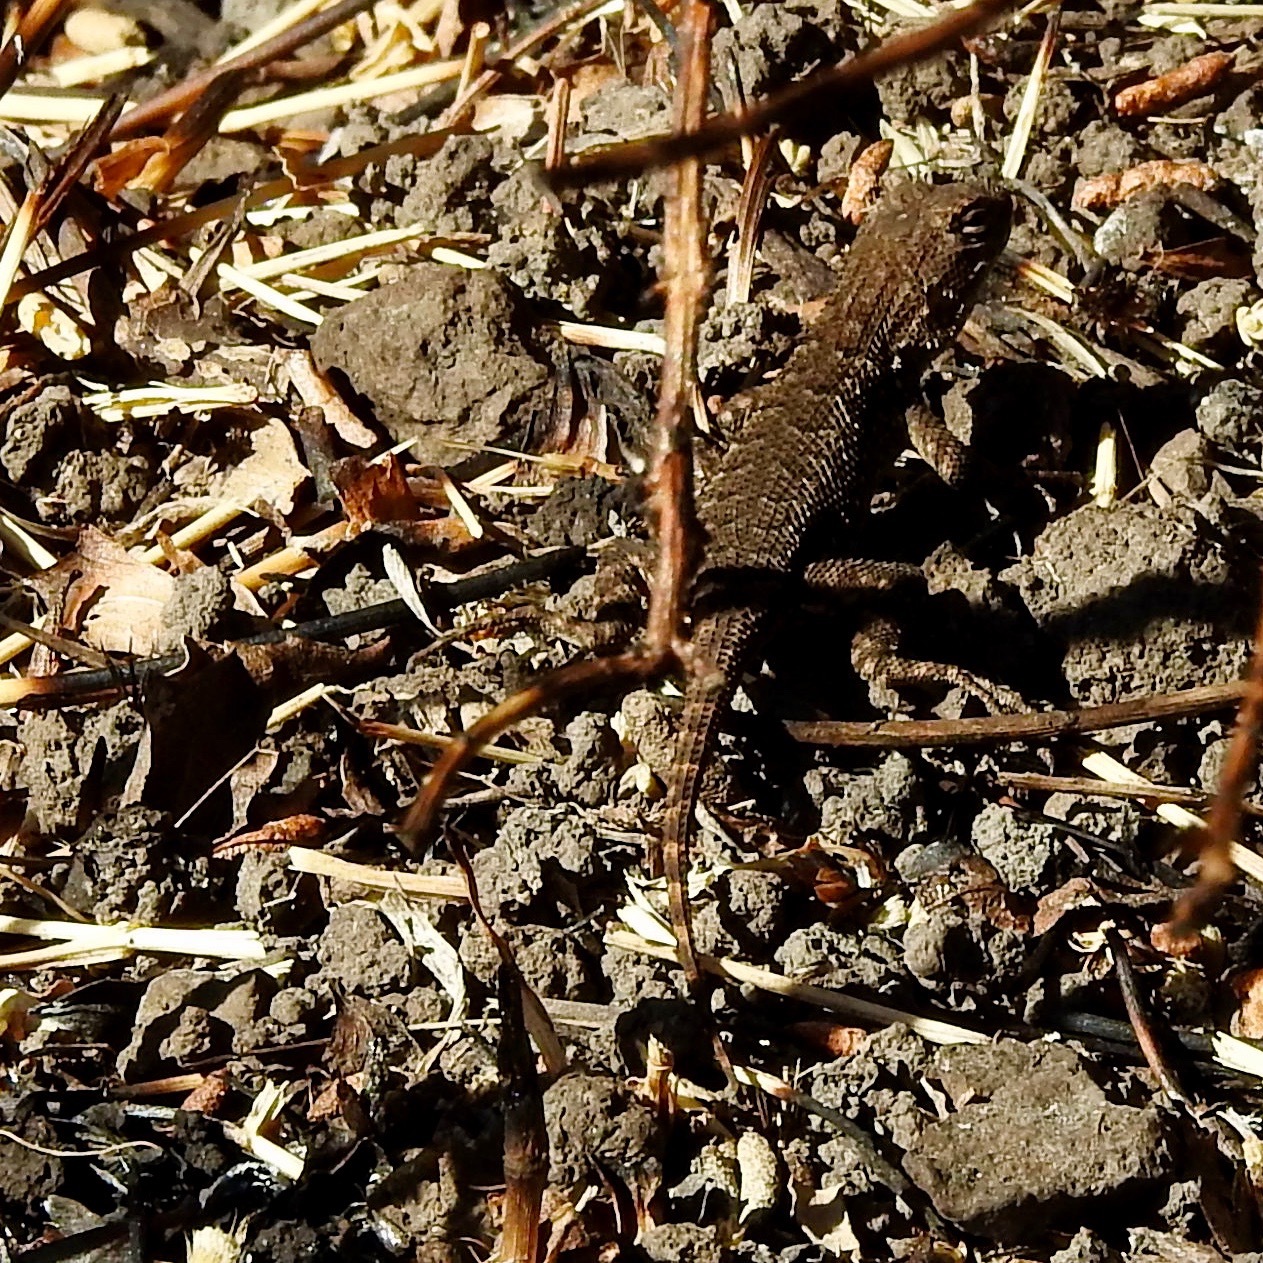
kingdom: Animalia
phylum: Chordata
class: Squamata
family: Phrynosomatidae
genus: Sceloporus
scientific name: Sceloporus occidentalis
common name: Western fence lizard
